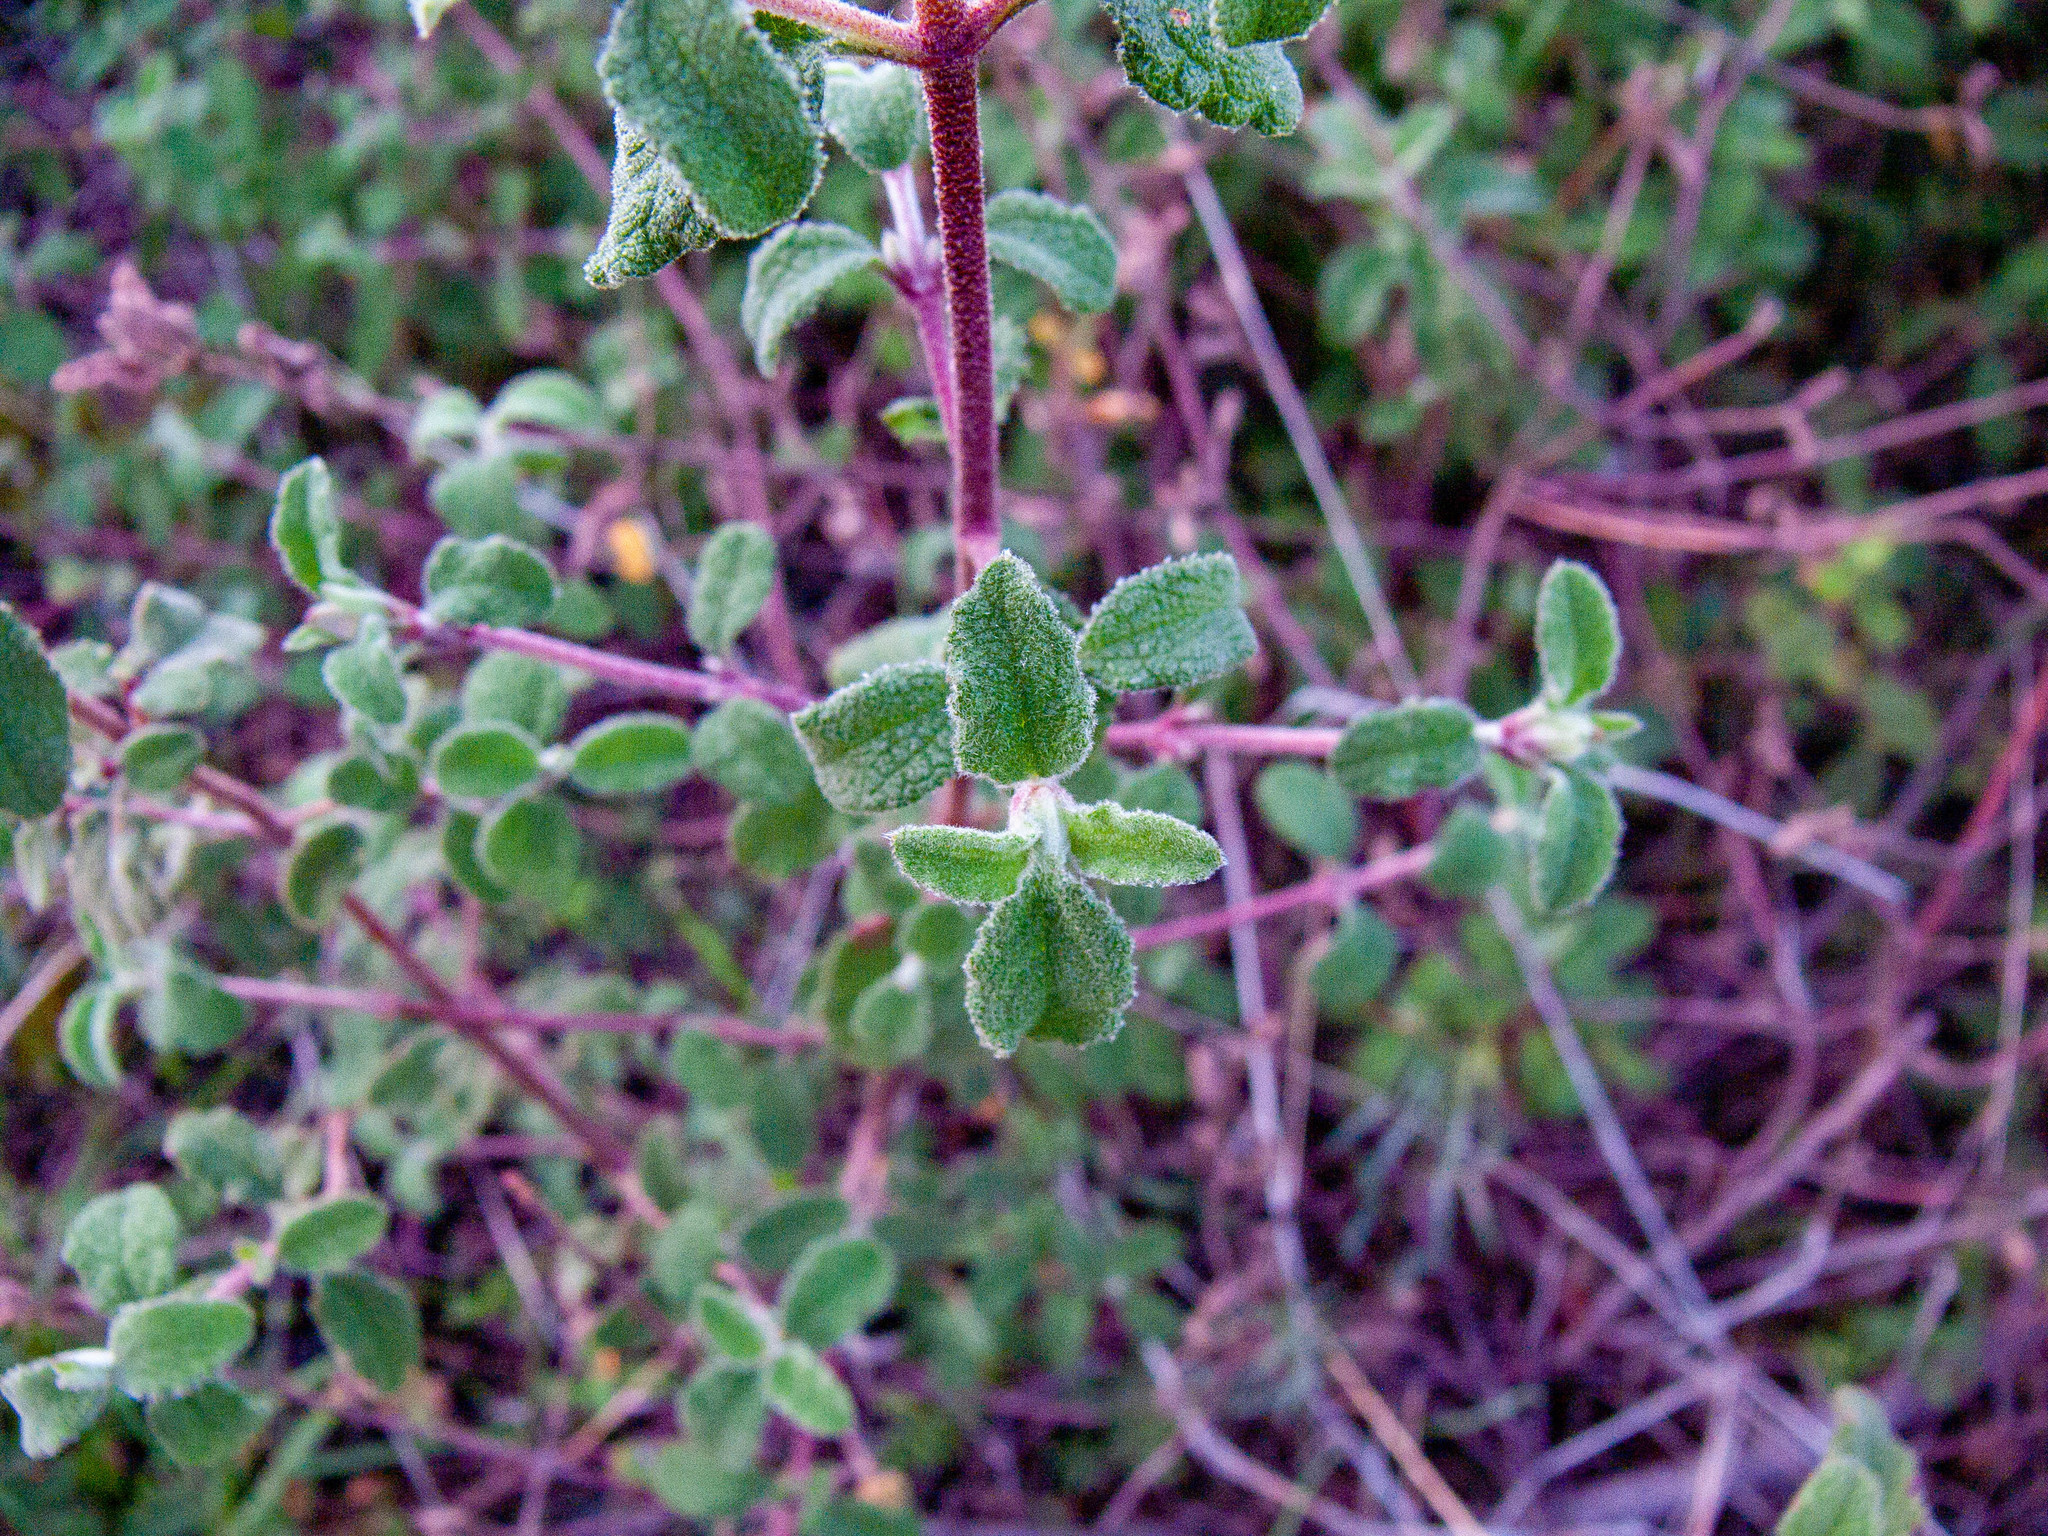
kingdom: Plantae
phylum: Tracheophyta
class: Magnoliopsida
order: Malvales
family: Cistaceae
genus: Cistus
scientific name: Cistus salviifolius
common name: Salvia cistus
